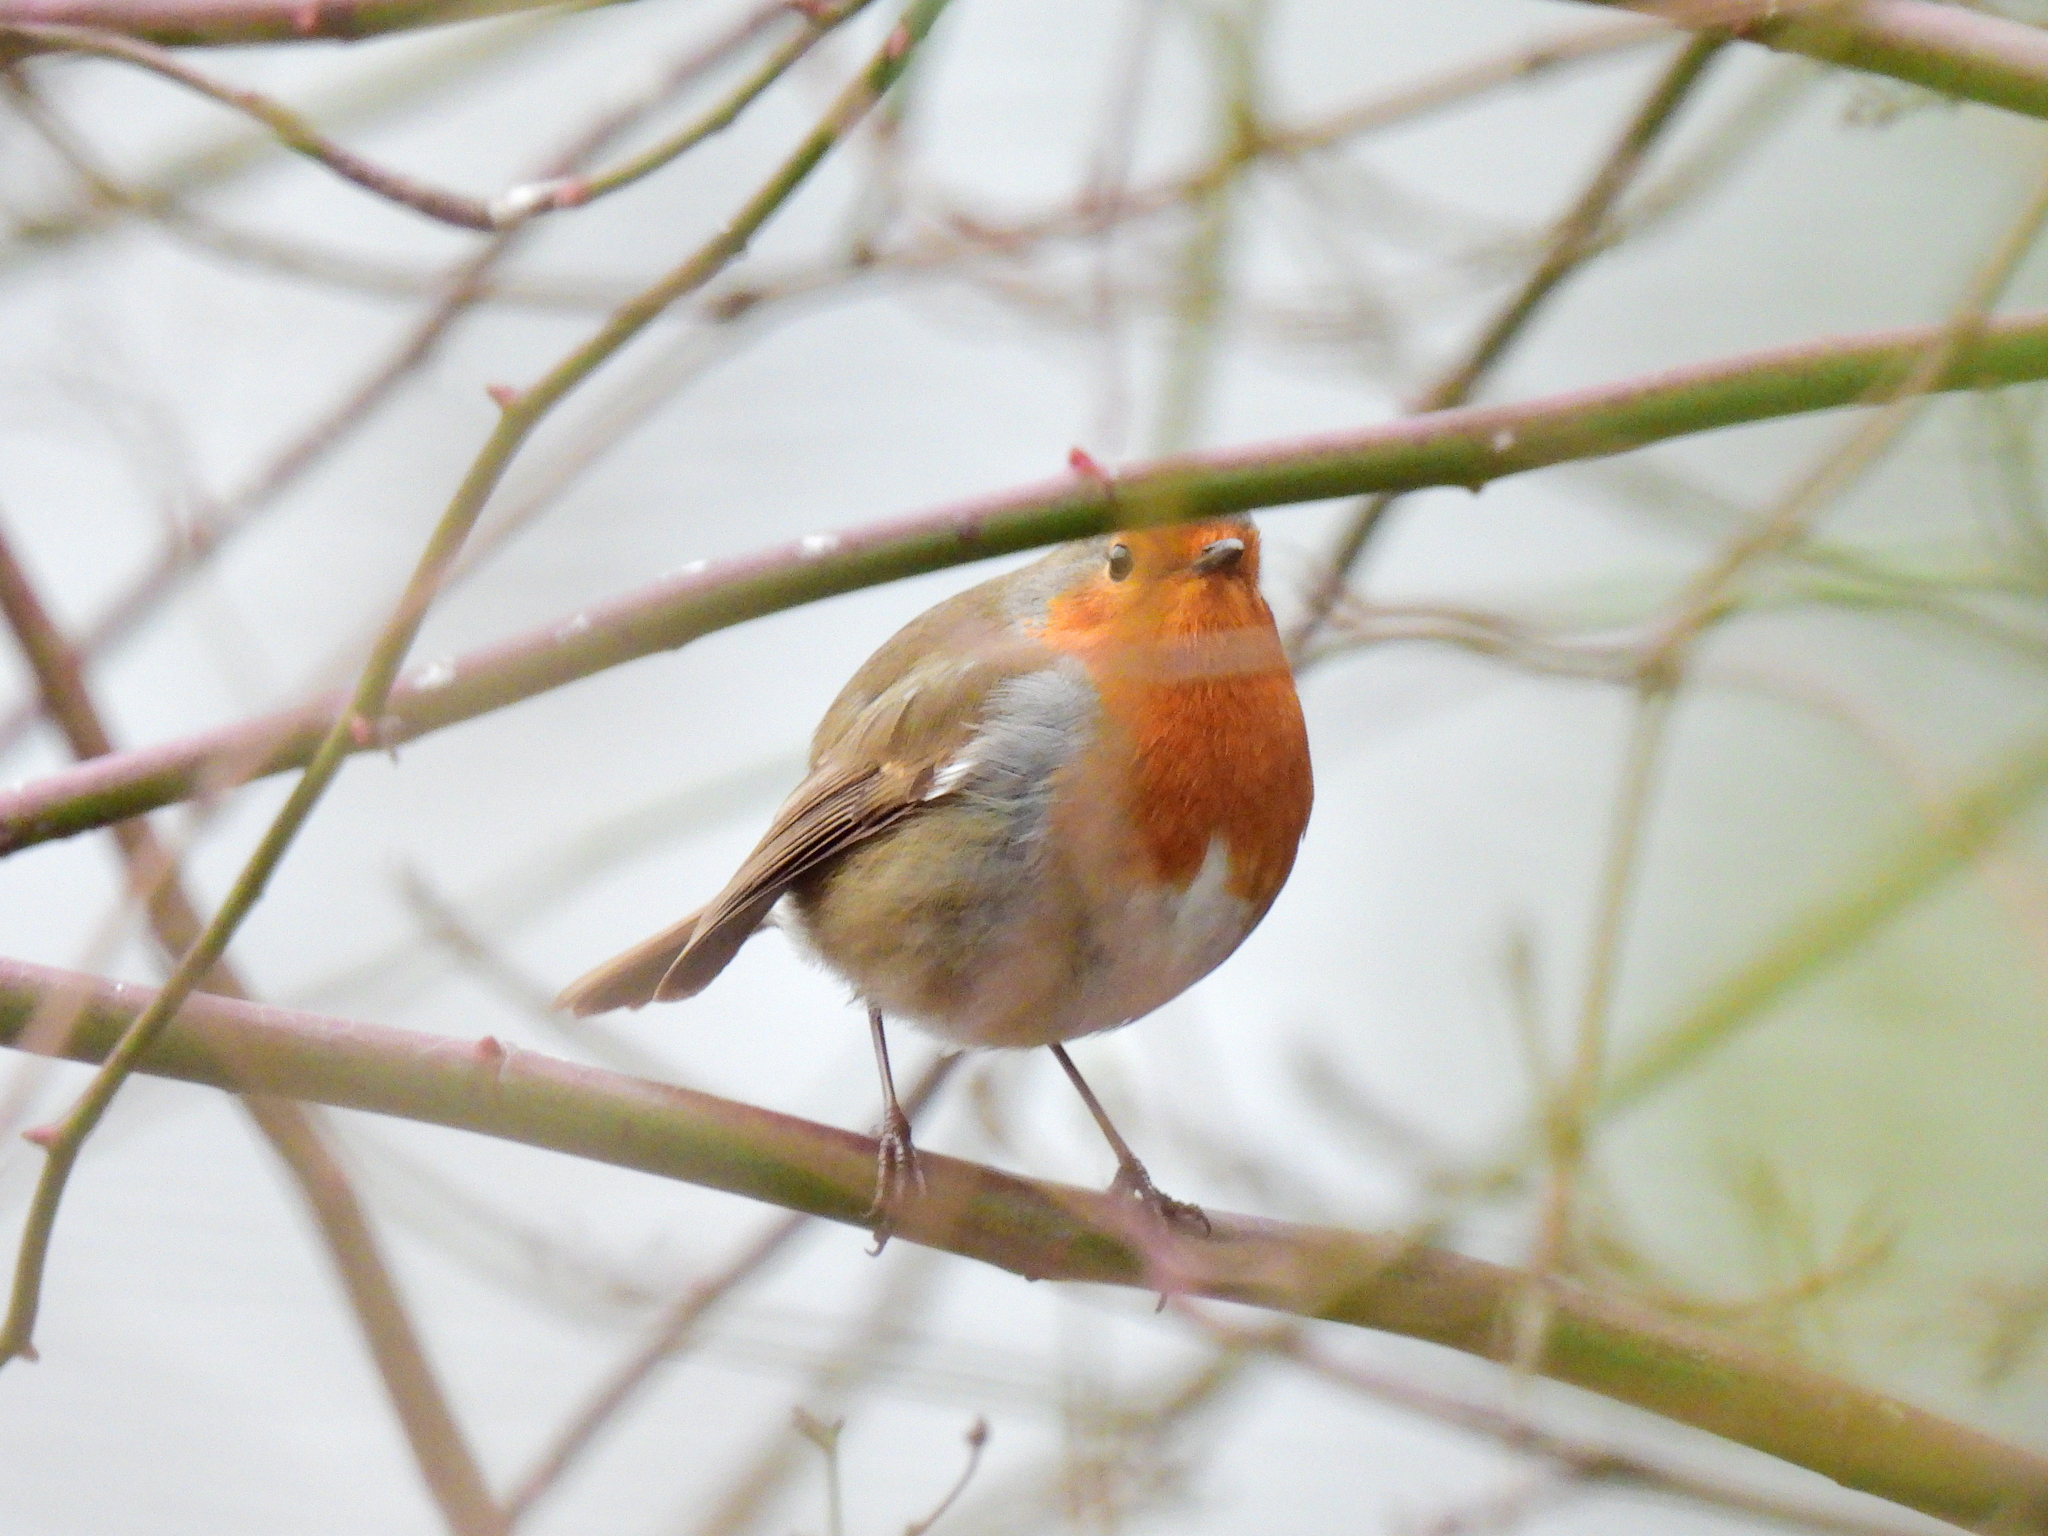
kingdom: Animalia
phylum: Chordata
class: Aves
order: Passeriformes
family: Muscicapidae
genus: Erithacus
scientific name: Erithacus rubecula
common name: European robin
